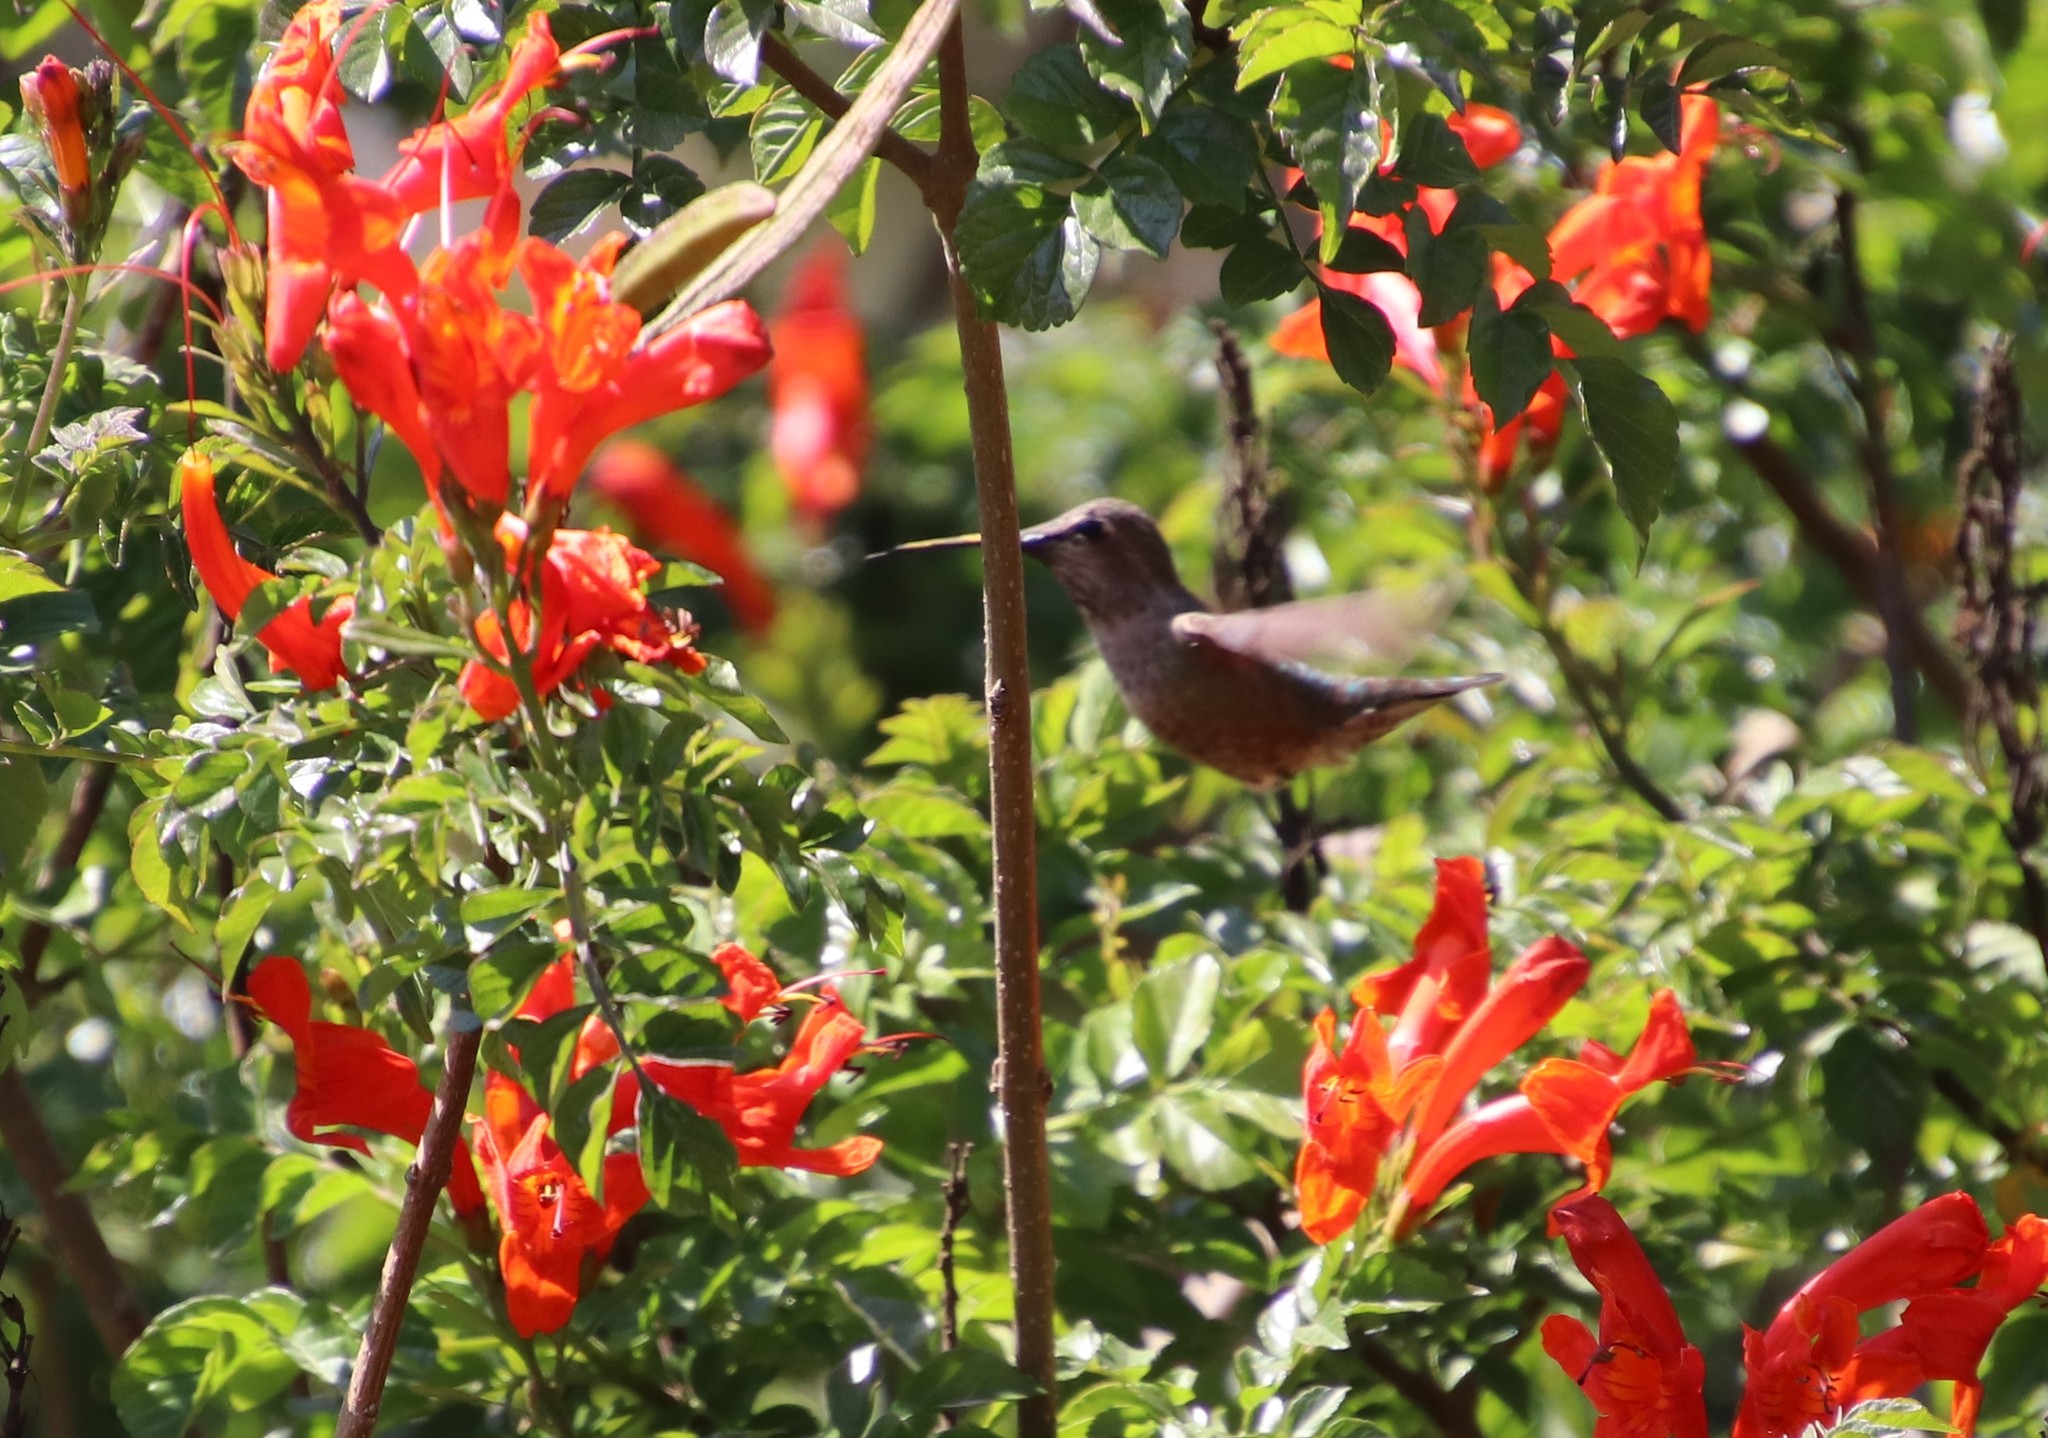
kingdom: Animalia
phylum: Chordata
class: Aves
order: Apodiformes
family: Trochilidae
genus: Calypte
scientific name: Calypte anna
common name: Anna's hummingbird
